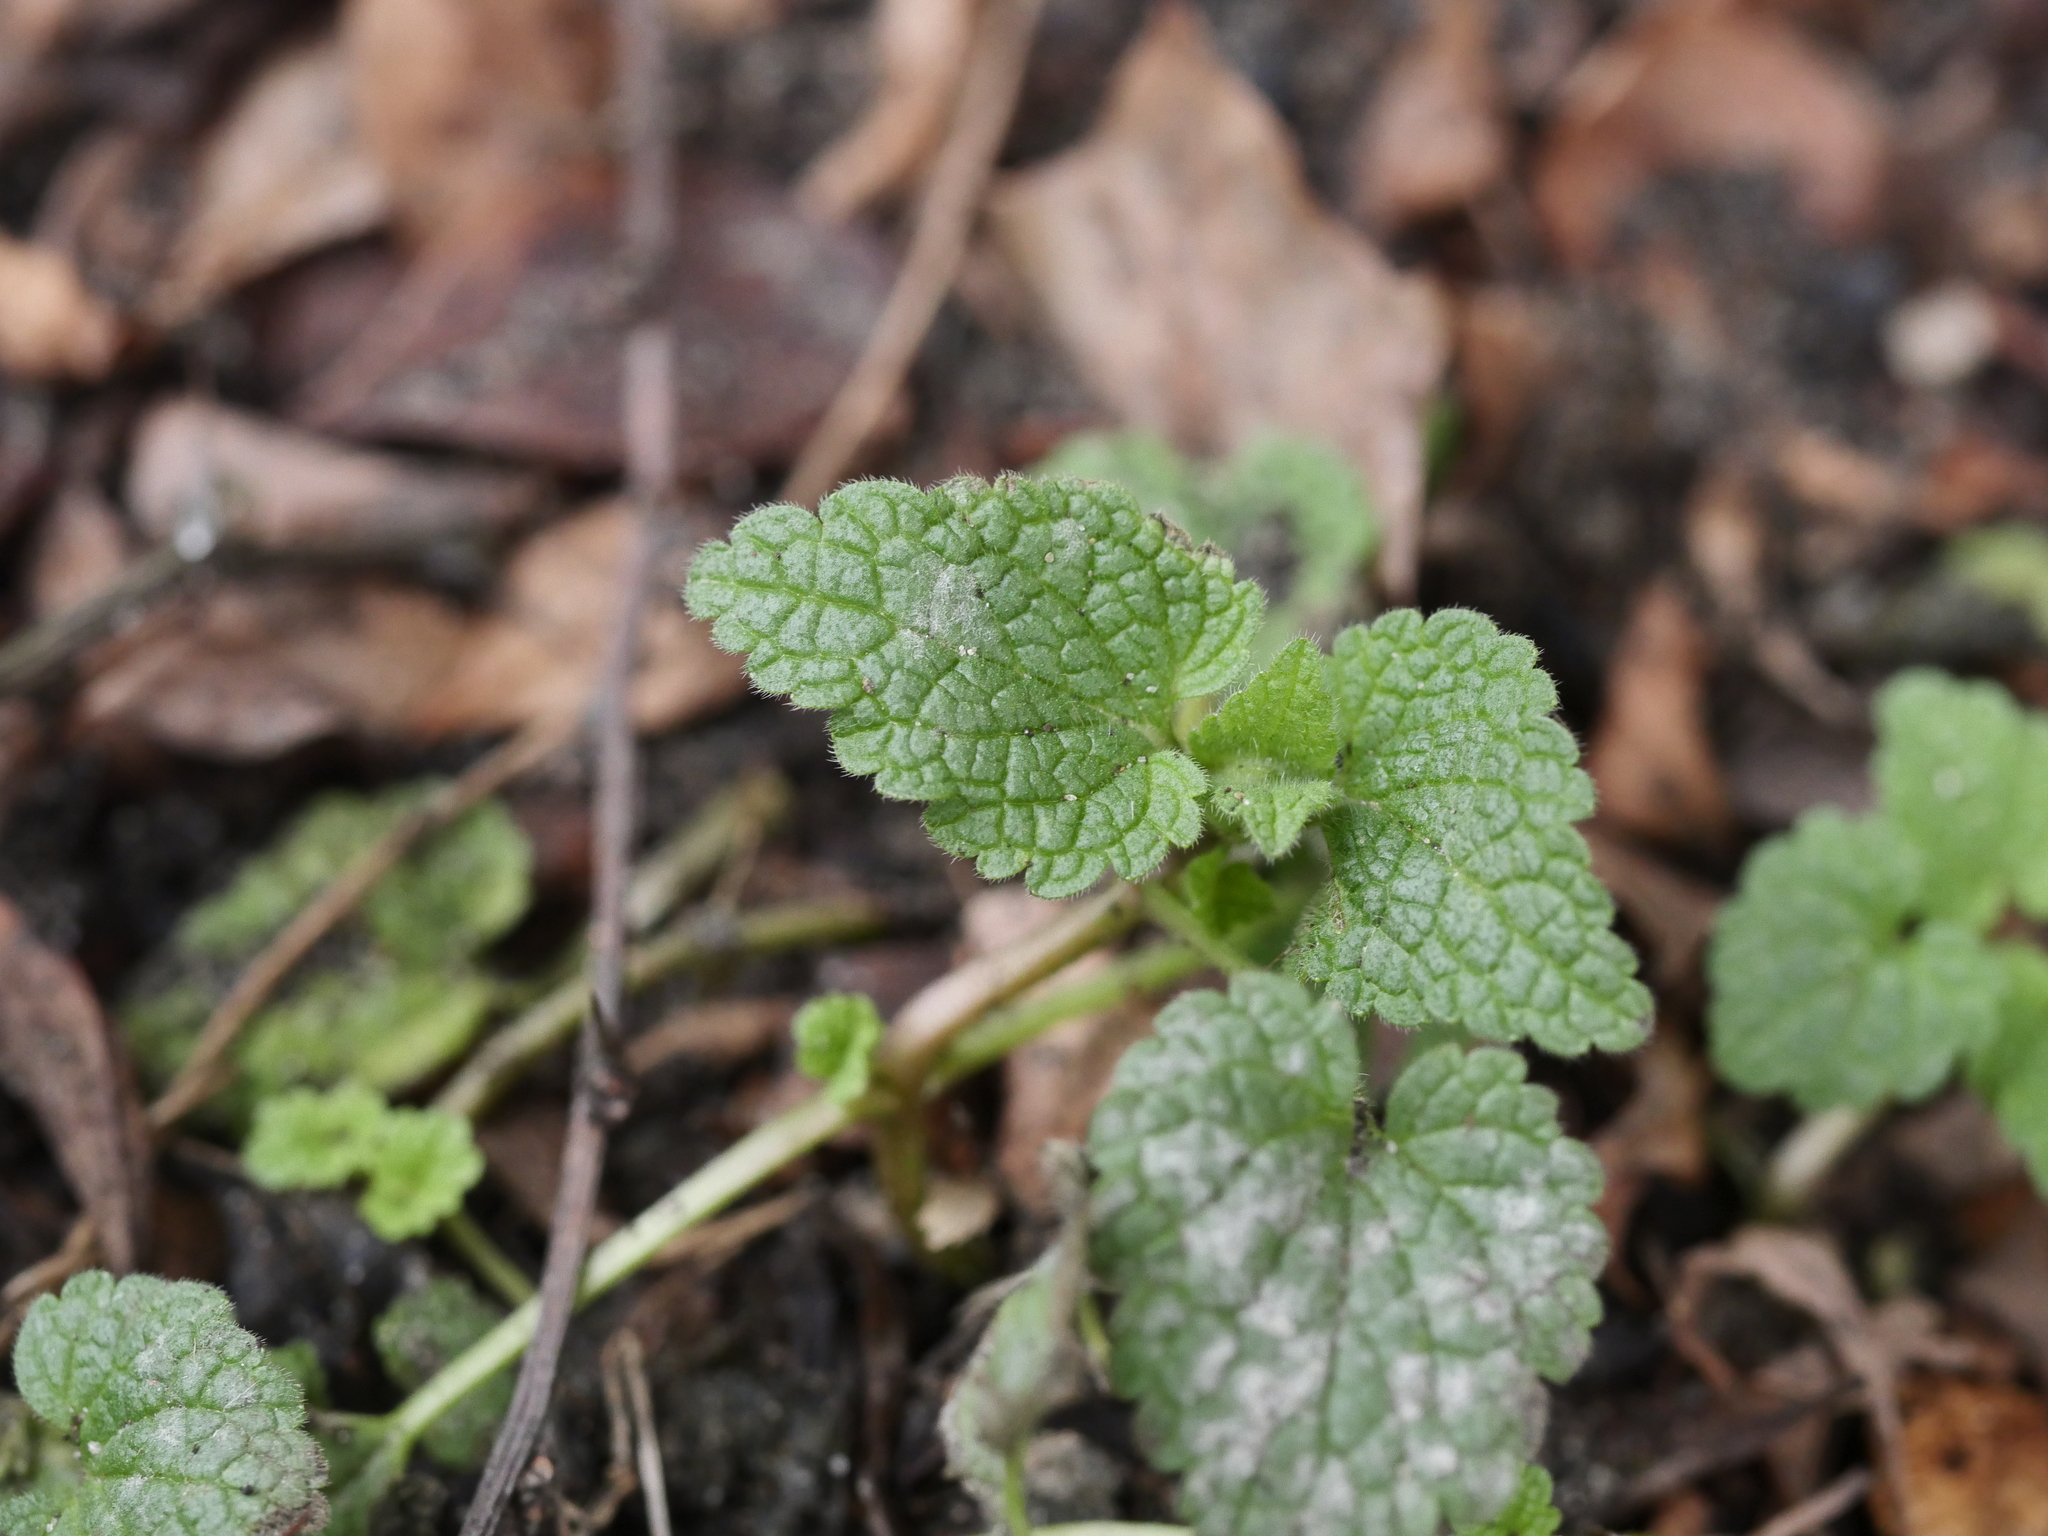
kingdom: Plantae
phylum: Tracheophyta
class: Magnoliopsida
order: Lamiales
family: Lamiaceae
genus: Lamium
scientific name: Lamium purpureum
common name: Red dead-nettle
